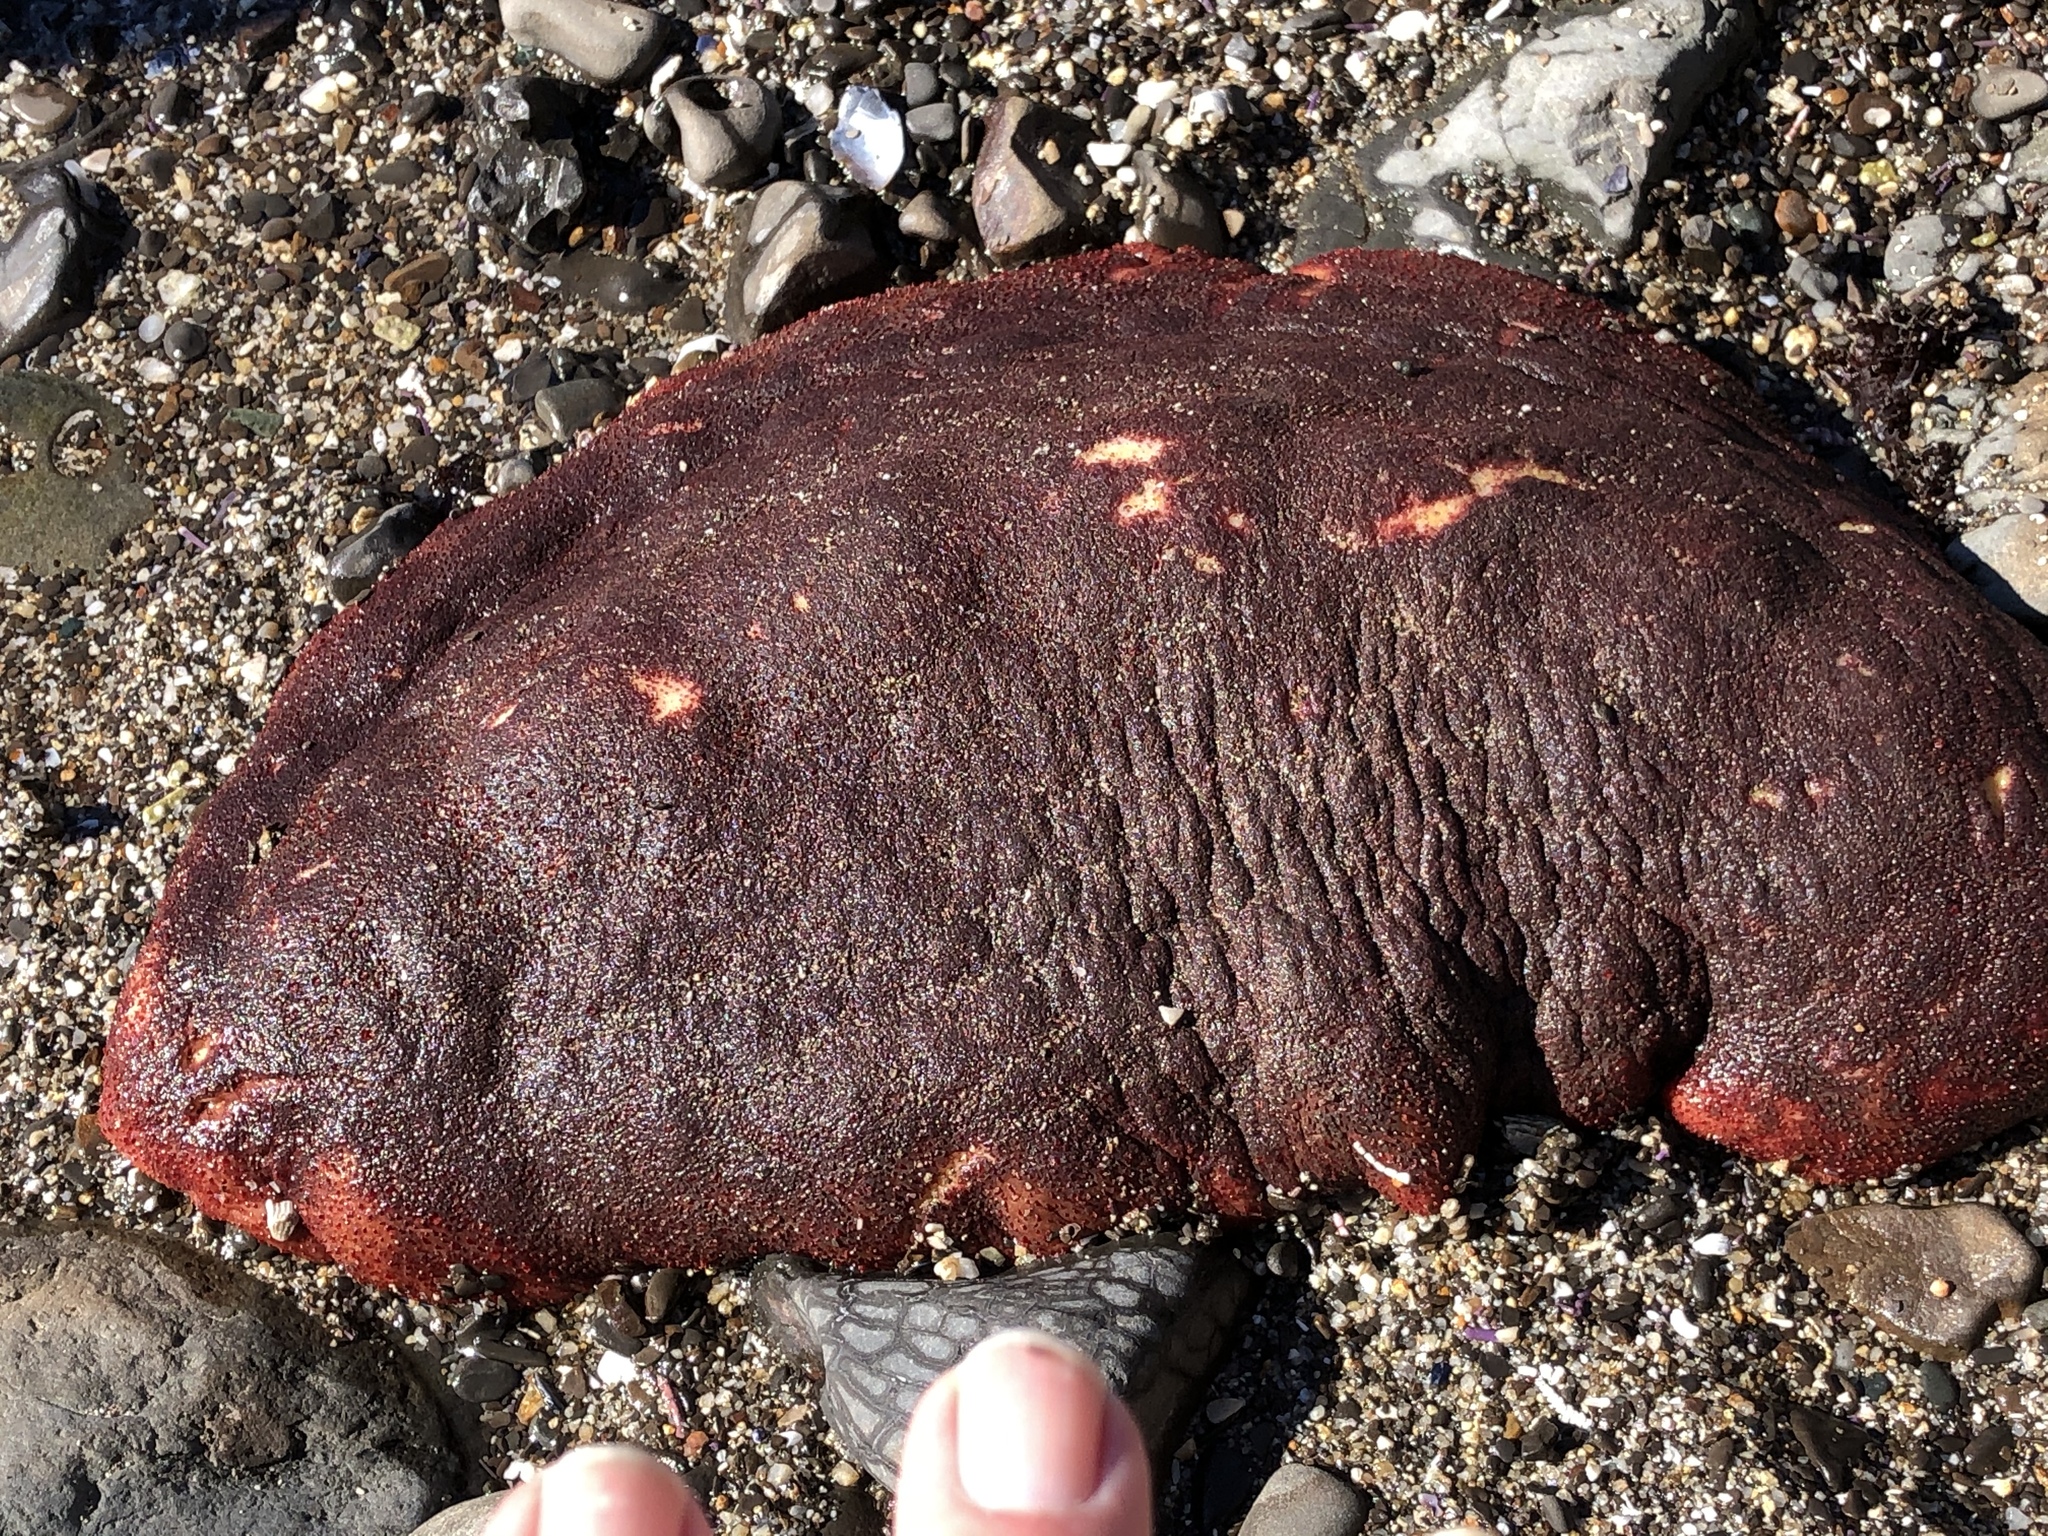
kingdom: Animalia
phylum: Mollusca
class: Polyplacophora
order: Chitonida
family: Acanthochitonidae
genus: Cryptochiton
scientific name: Cryptochiton stelleri
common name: Giant pacific chiton
